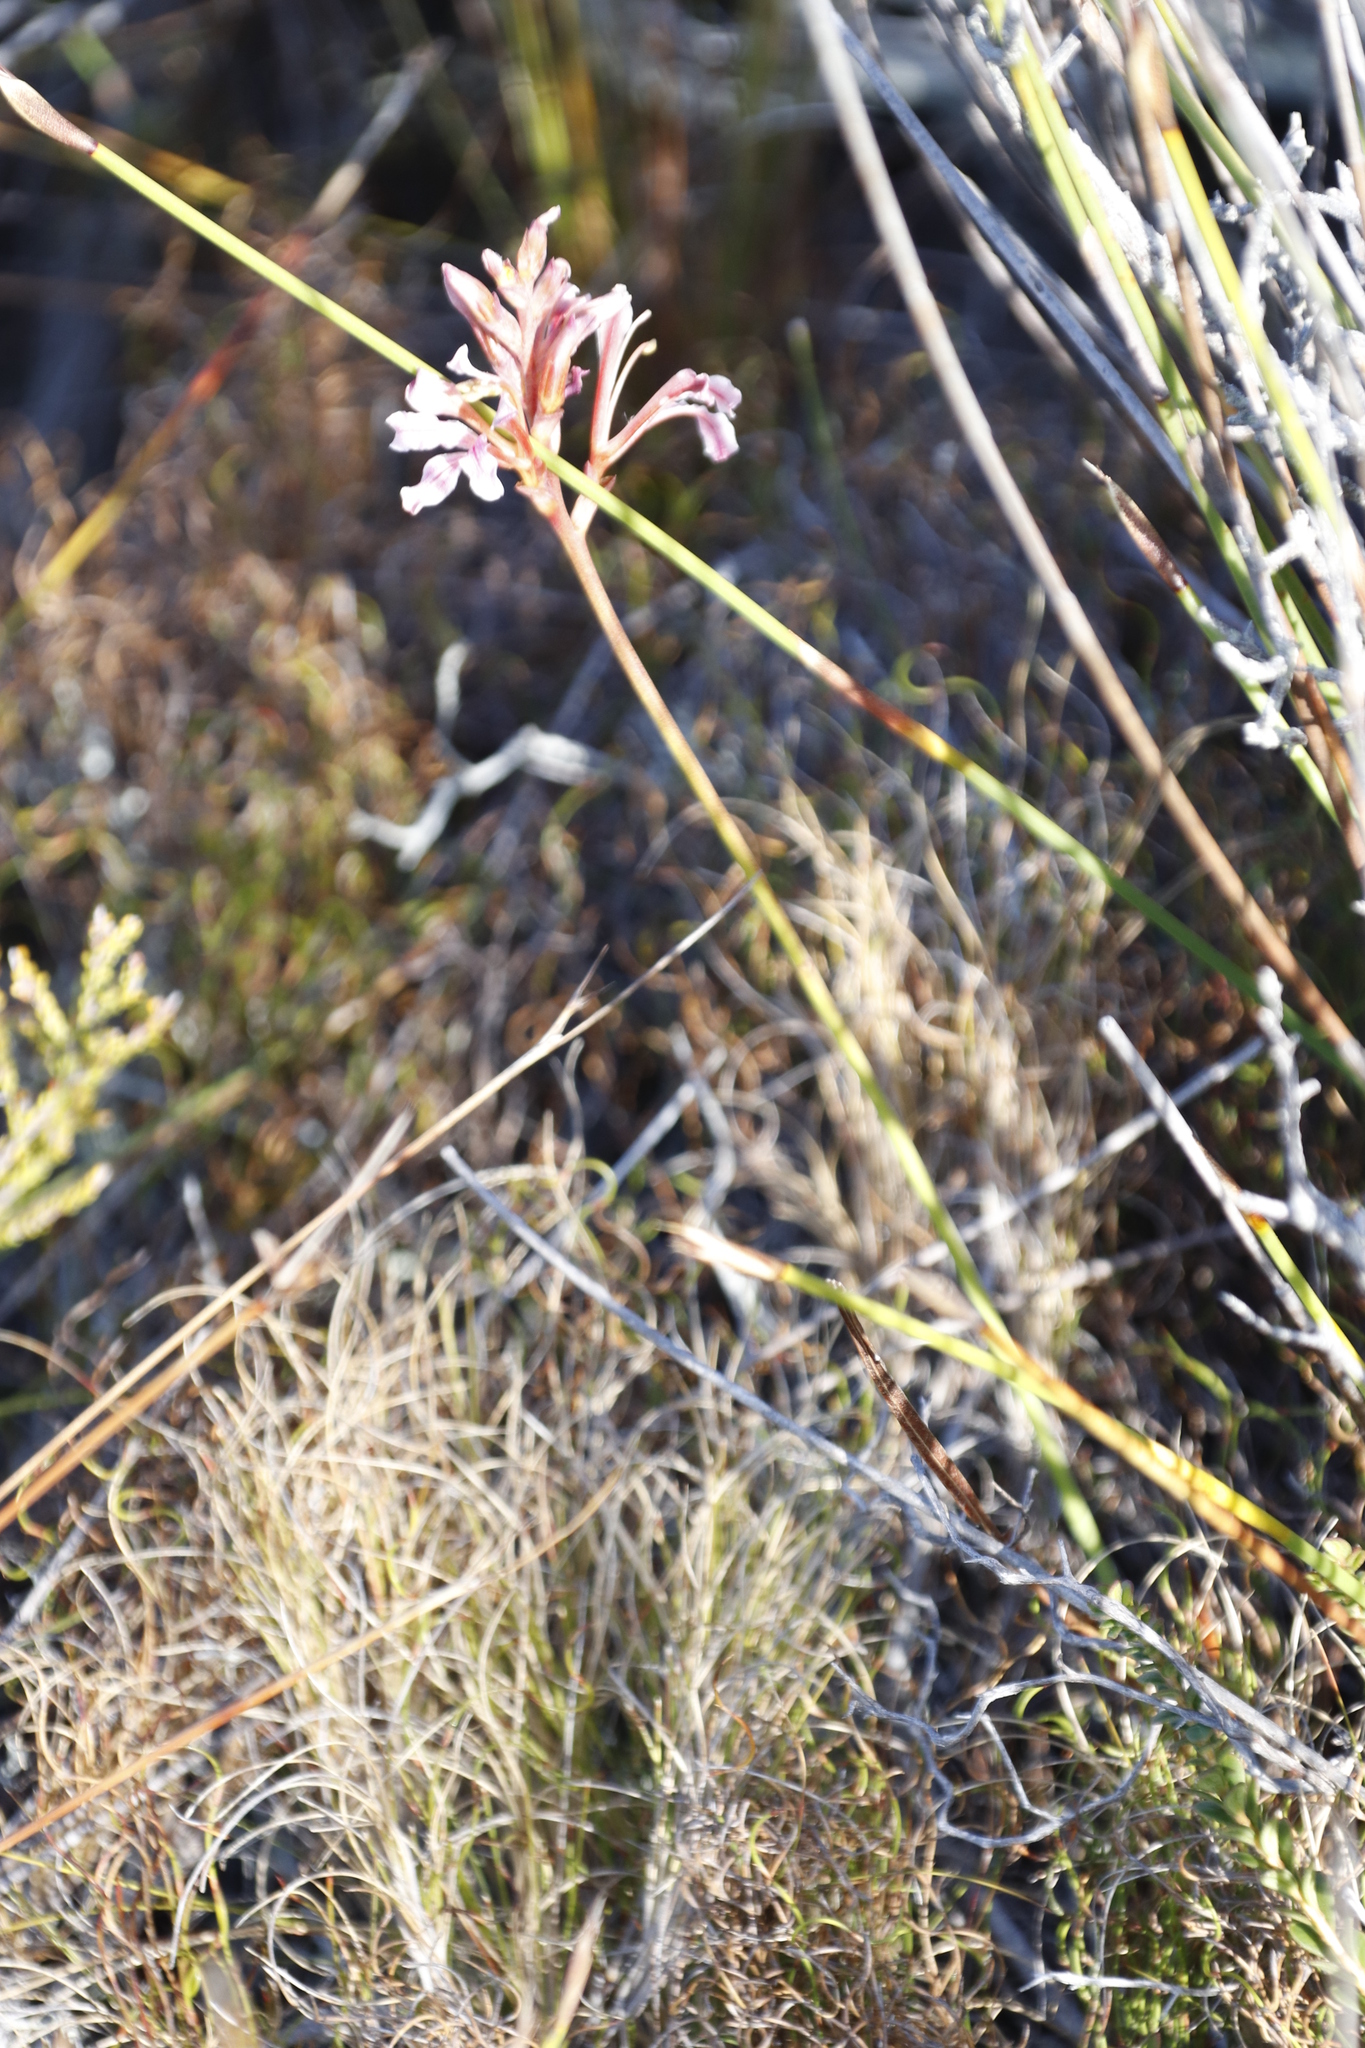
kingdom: Plantae
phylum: Tracheophyta
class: Liliopsida
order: Asparagales
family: Iridaceae
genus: Tritoniopsis
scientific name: Tritoniopsis dodii
